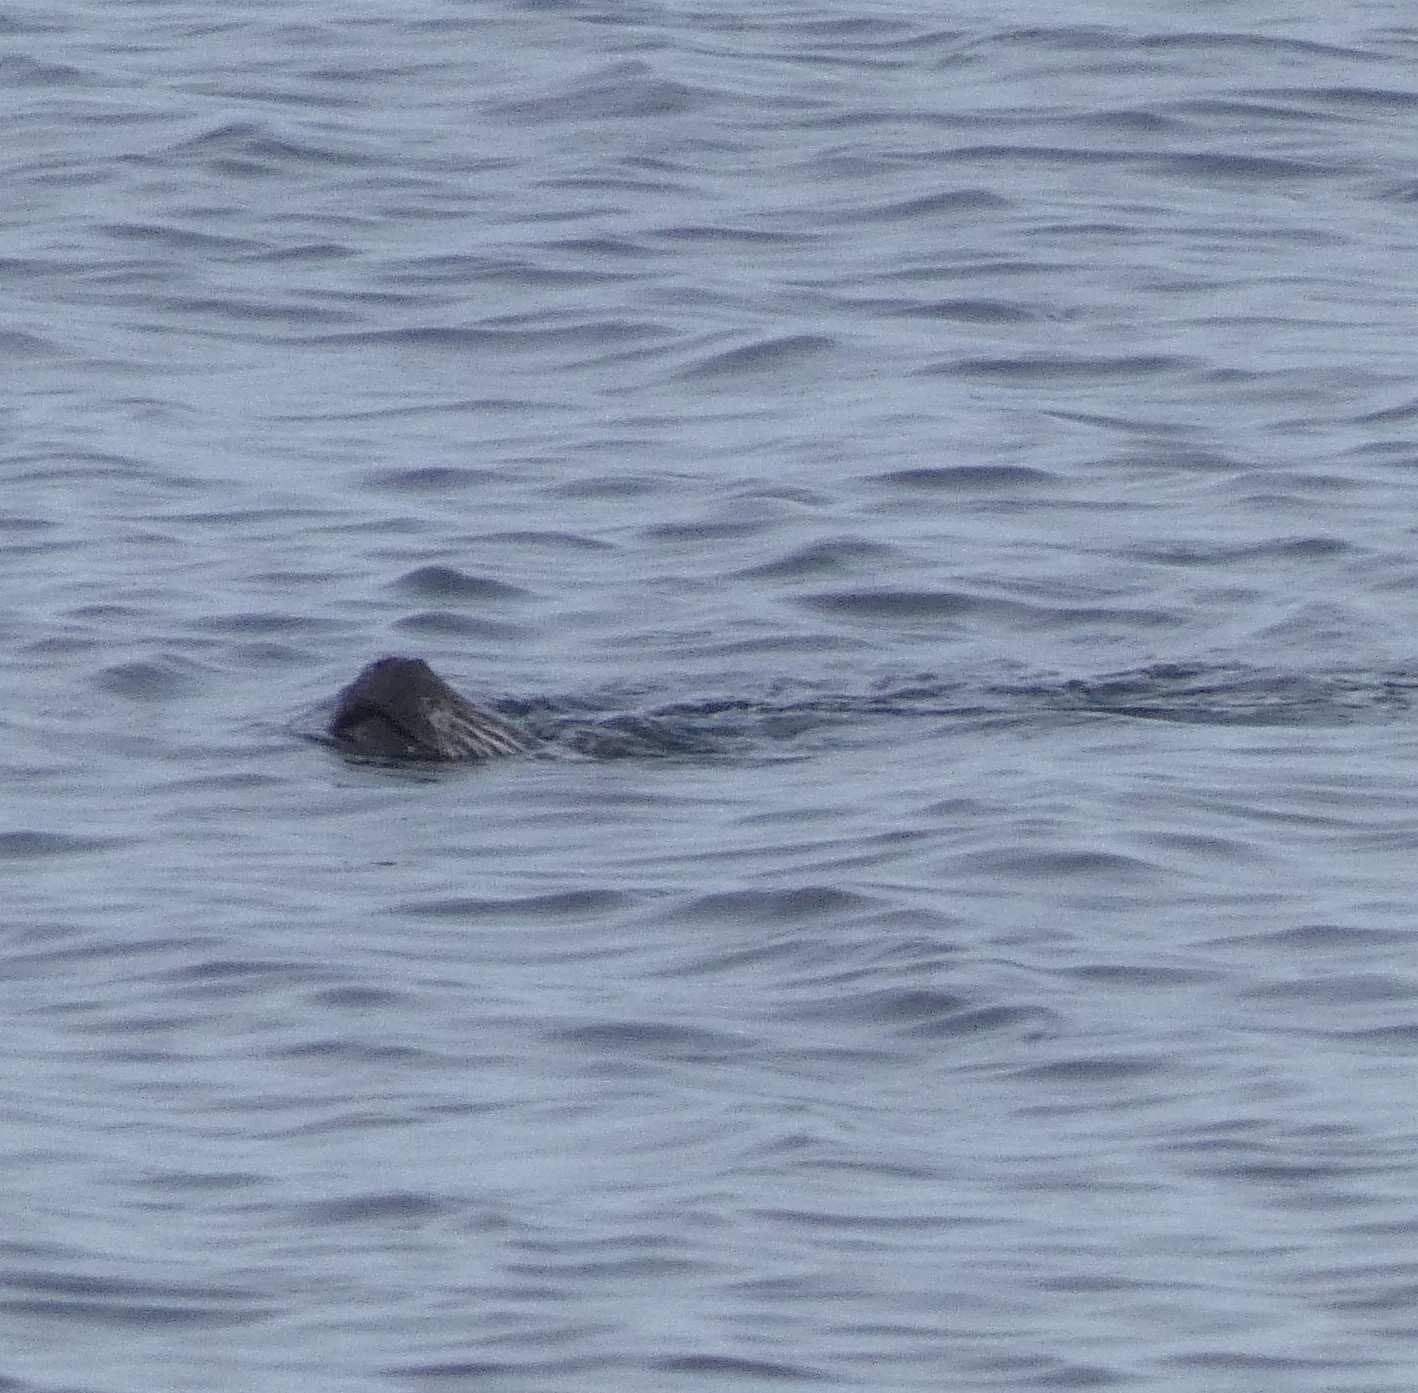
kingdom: Animalia
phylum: Chordata
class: Mammalia
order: Carnivora
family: Phocidae
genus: Phoca
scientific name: Phoca vitulina
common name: Harbor seal
